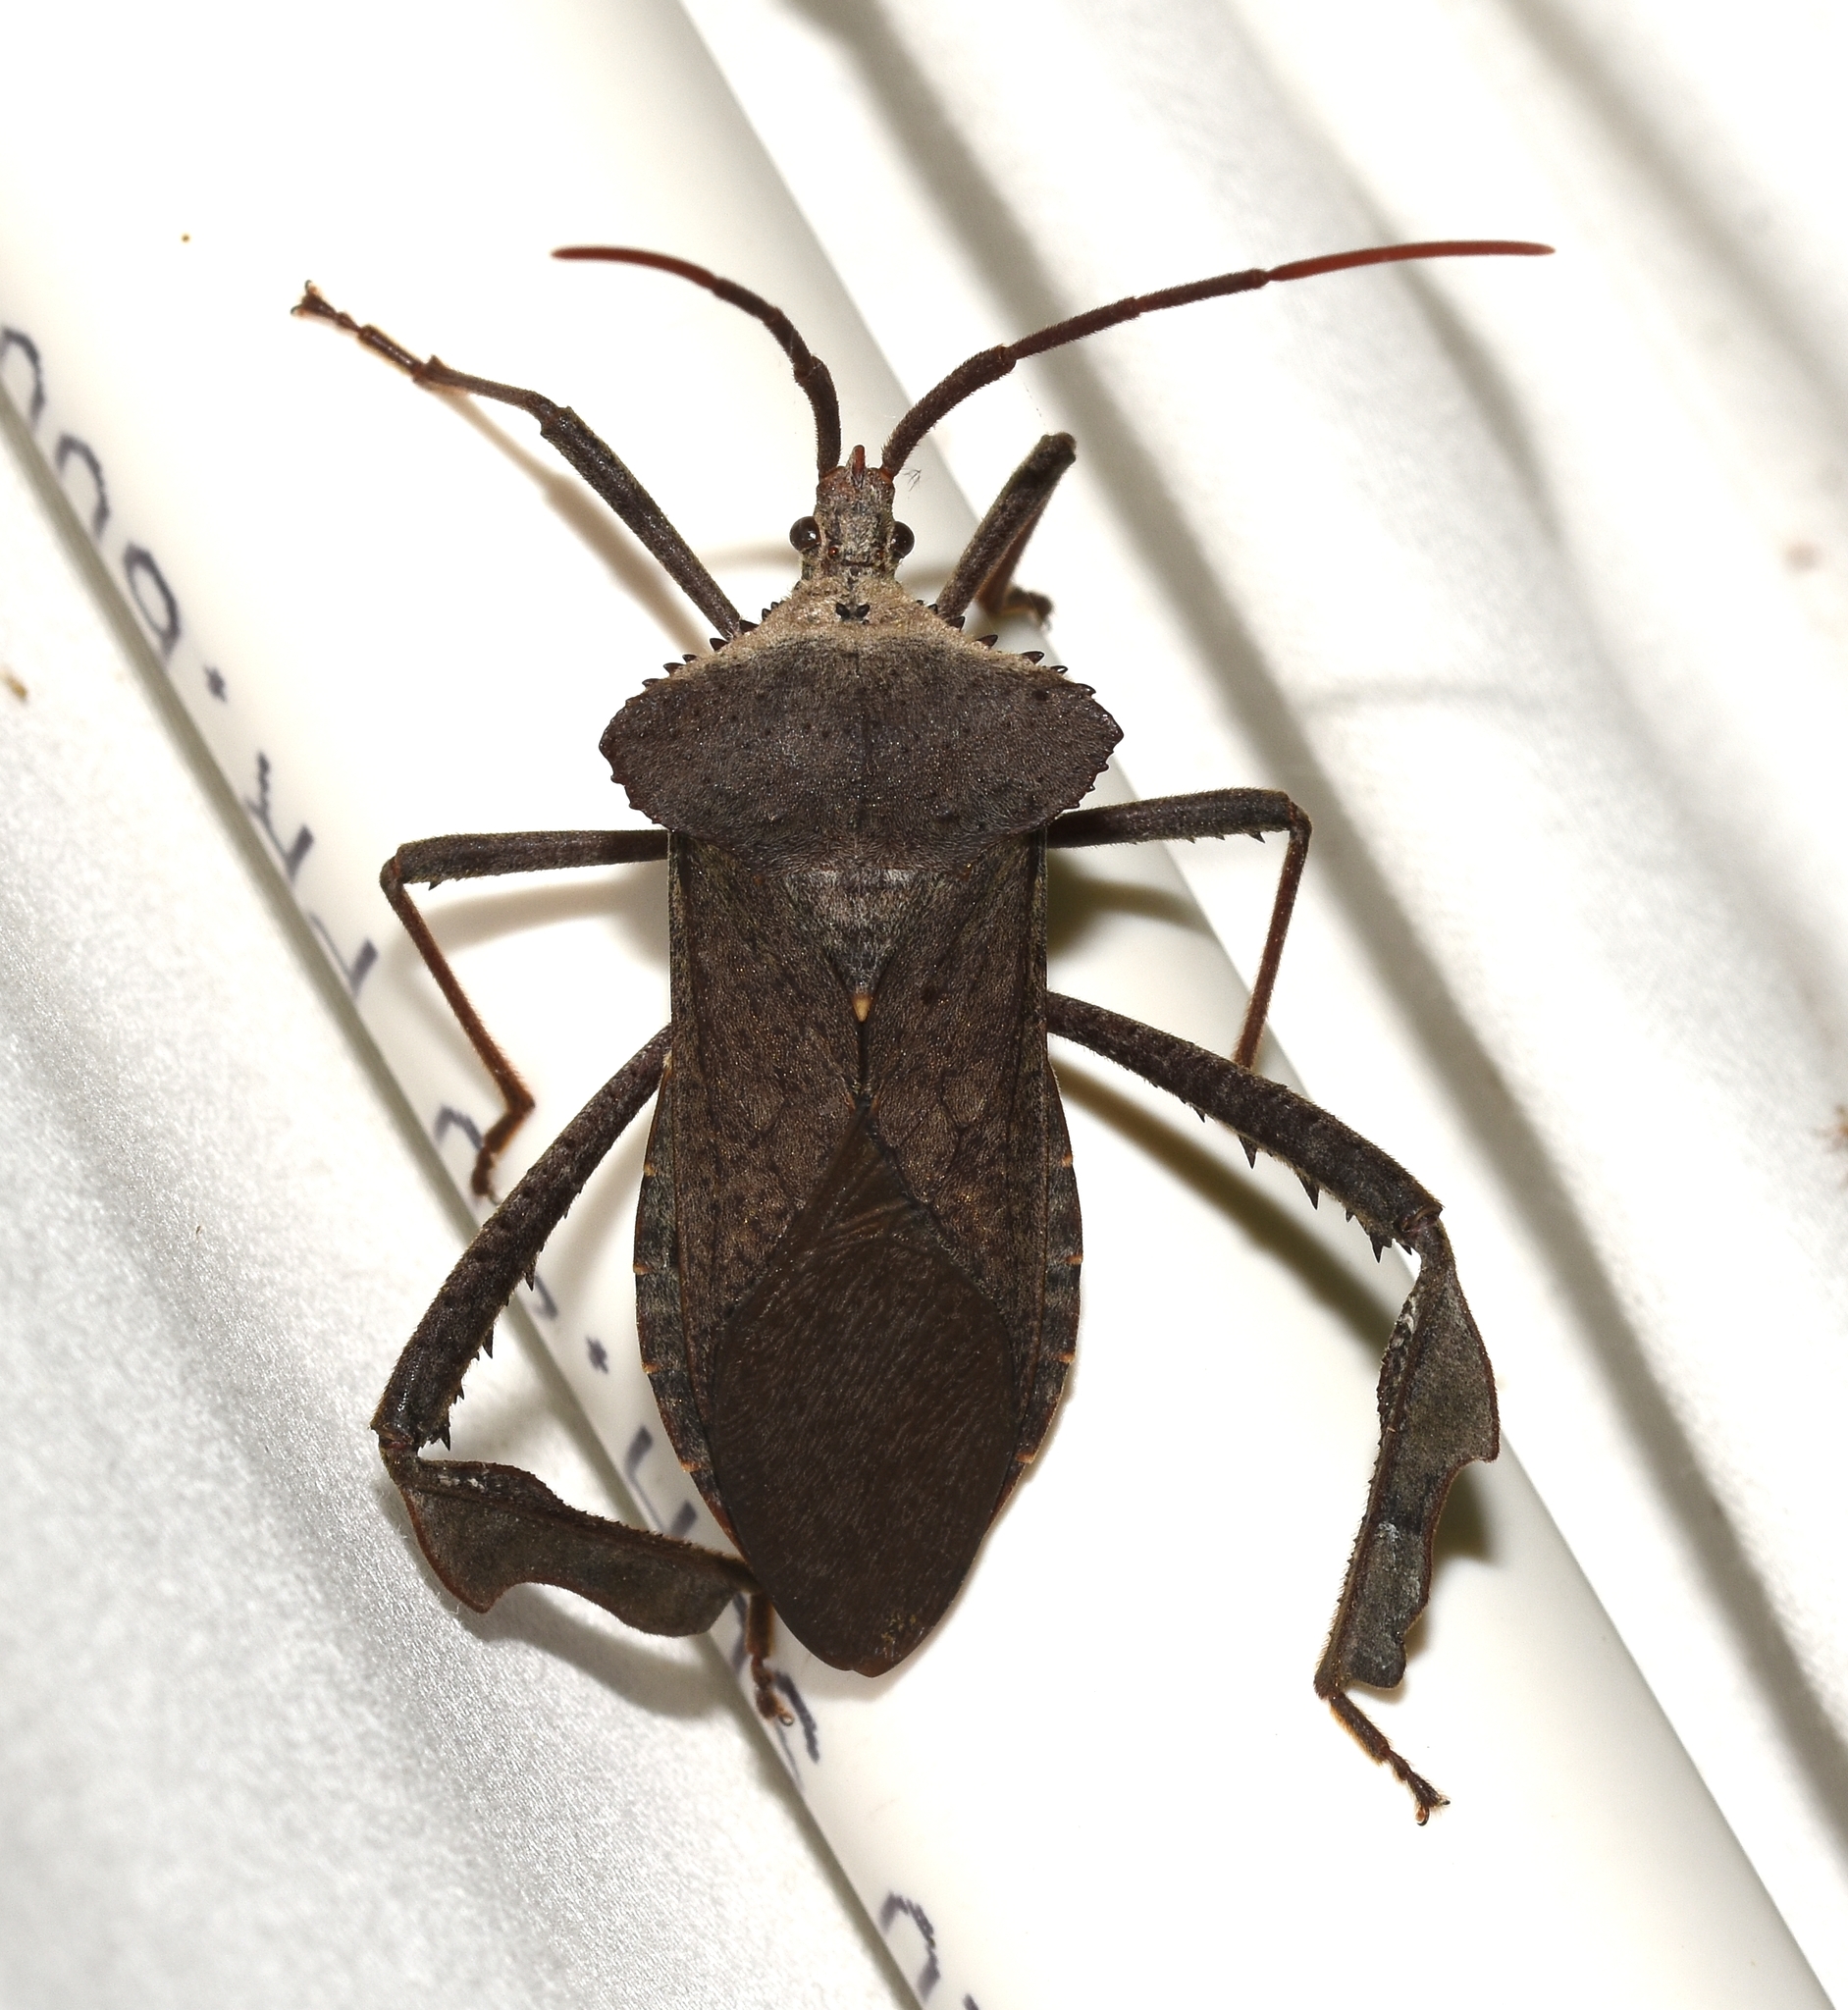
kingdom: Animalia
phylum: Arthropoda
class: Insecta
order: Hemiptera
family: Coreidae
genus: Acanthocephala
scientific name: Acanthocephala declivis
